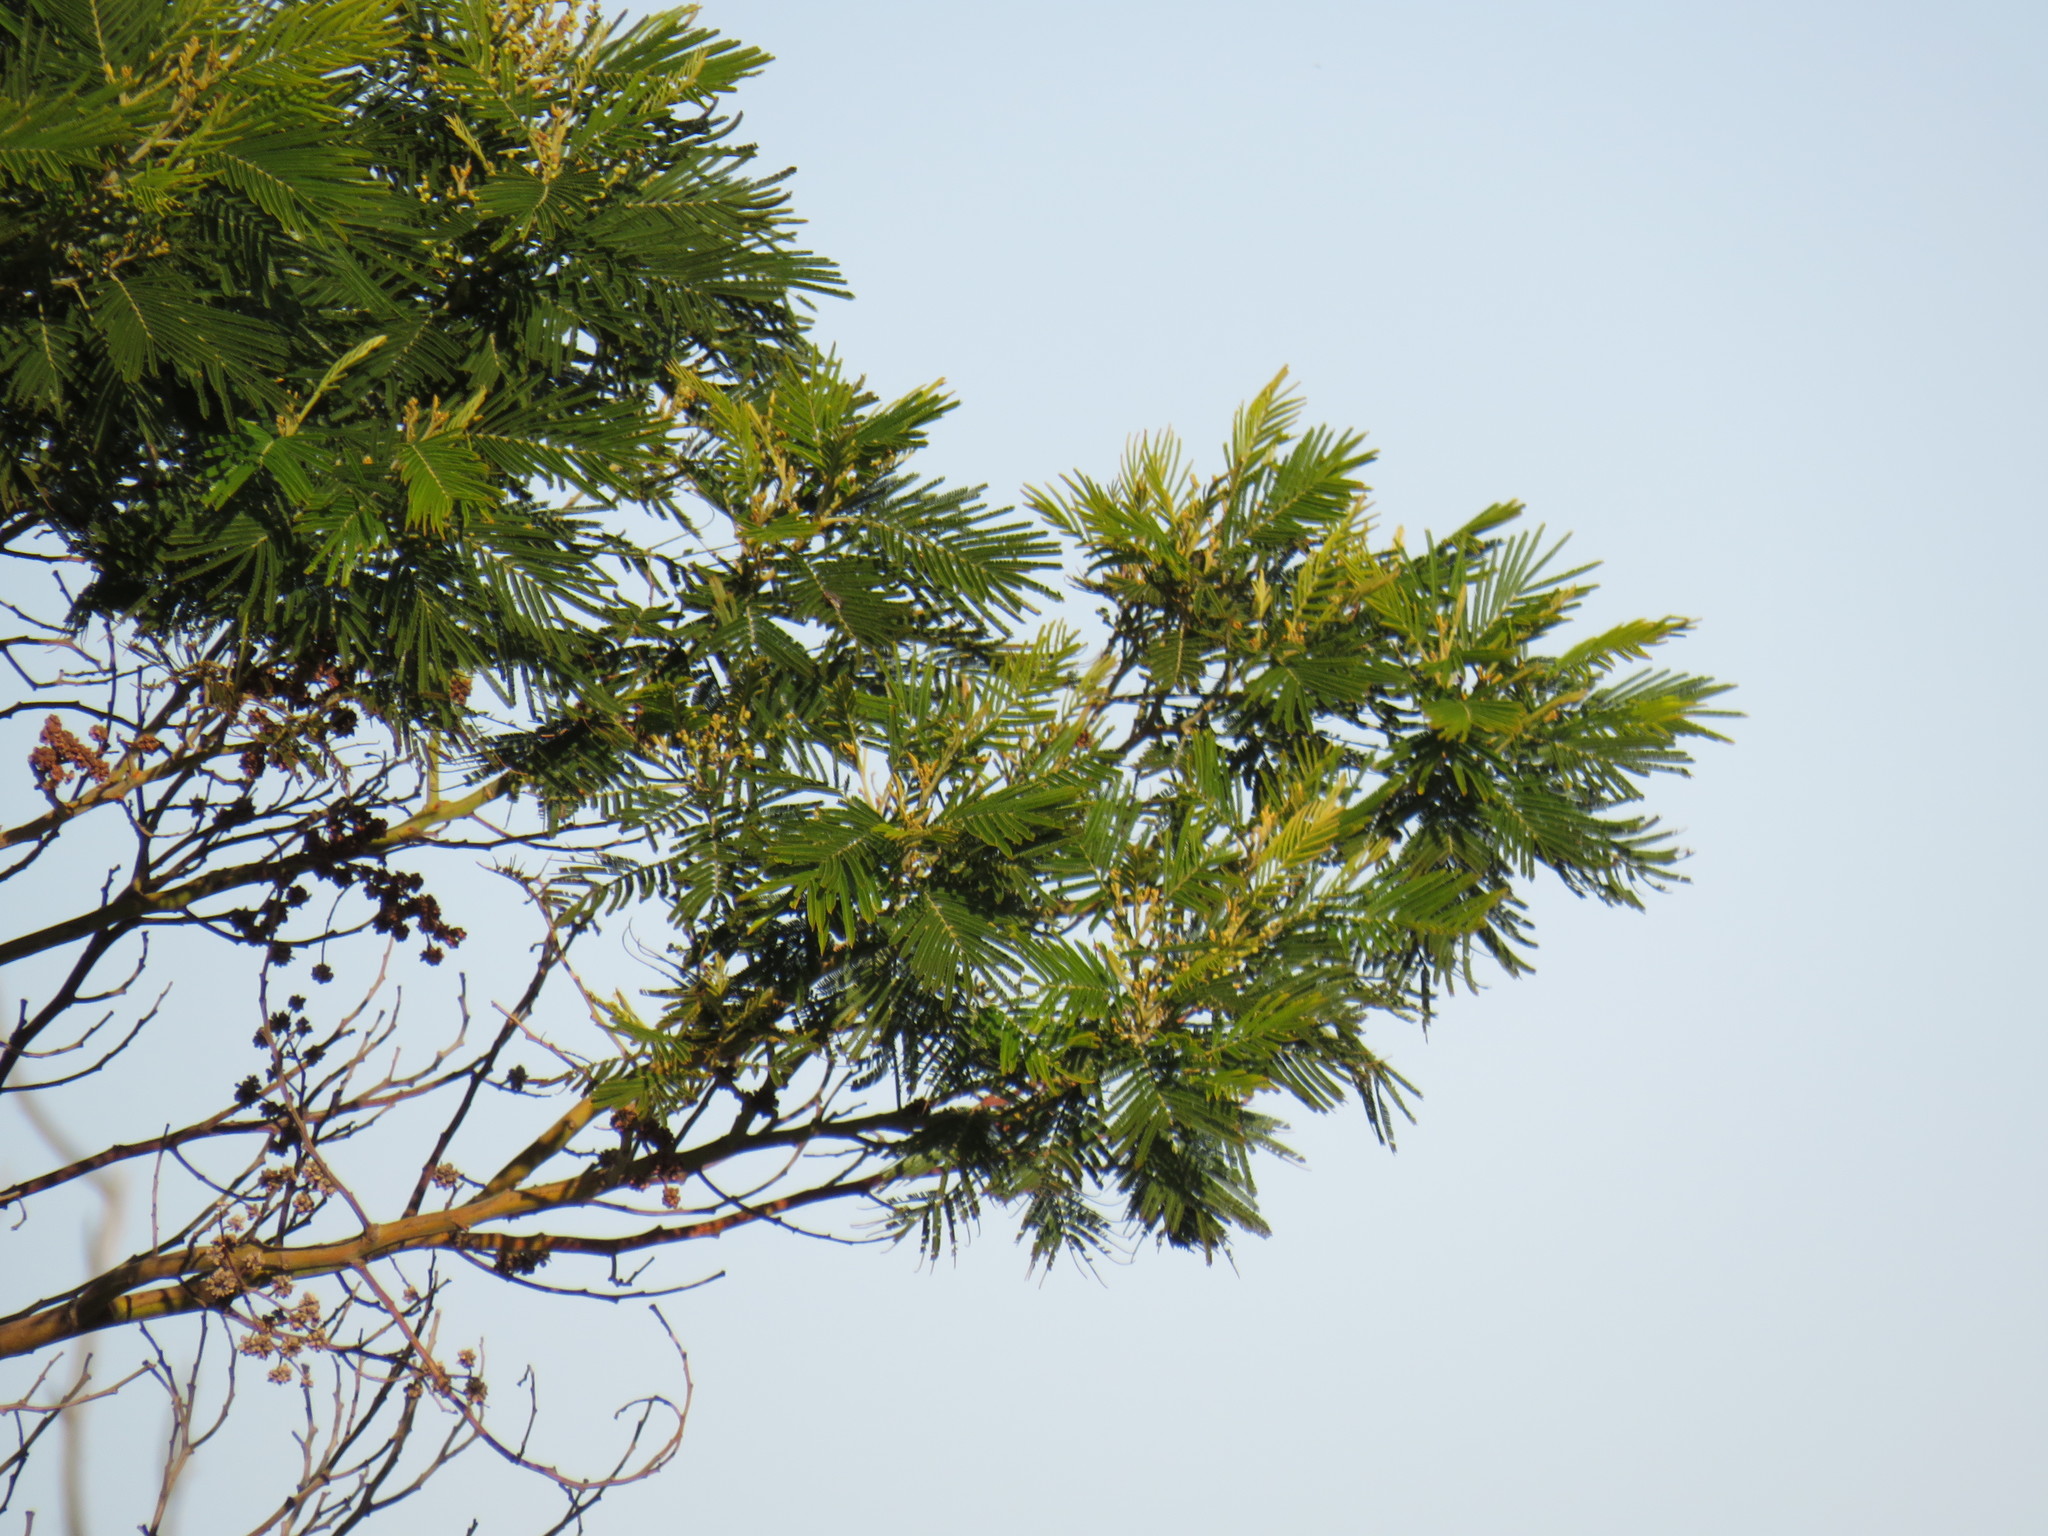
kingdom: Animalia
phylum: Arthropoda
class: Insecta
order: Diptera
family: Cecidomyiidae
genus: Dasineura
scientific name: Dasineura rubiformis
